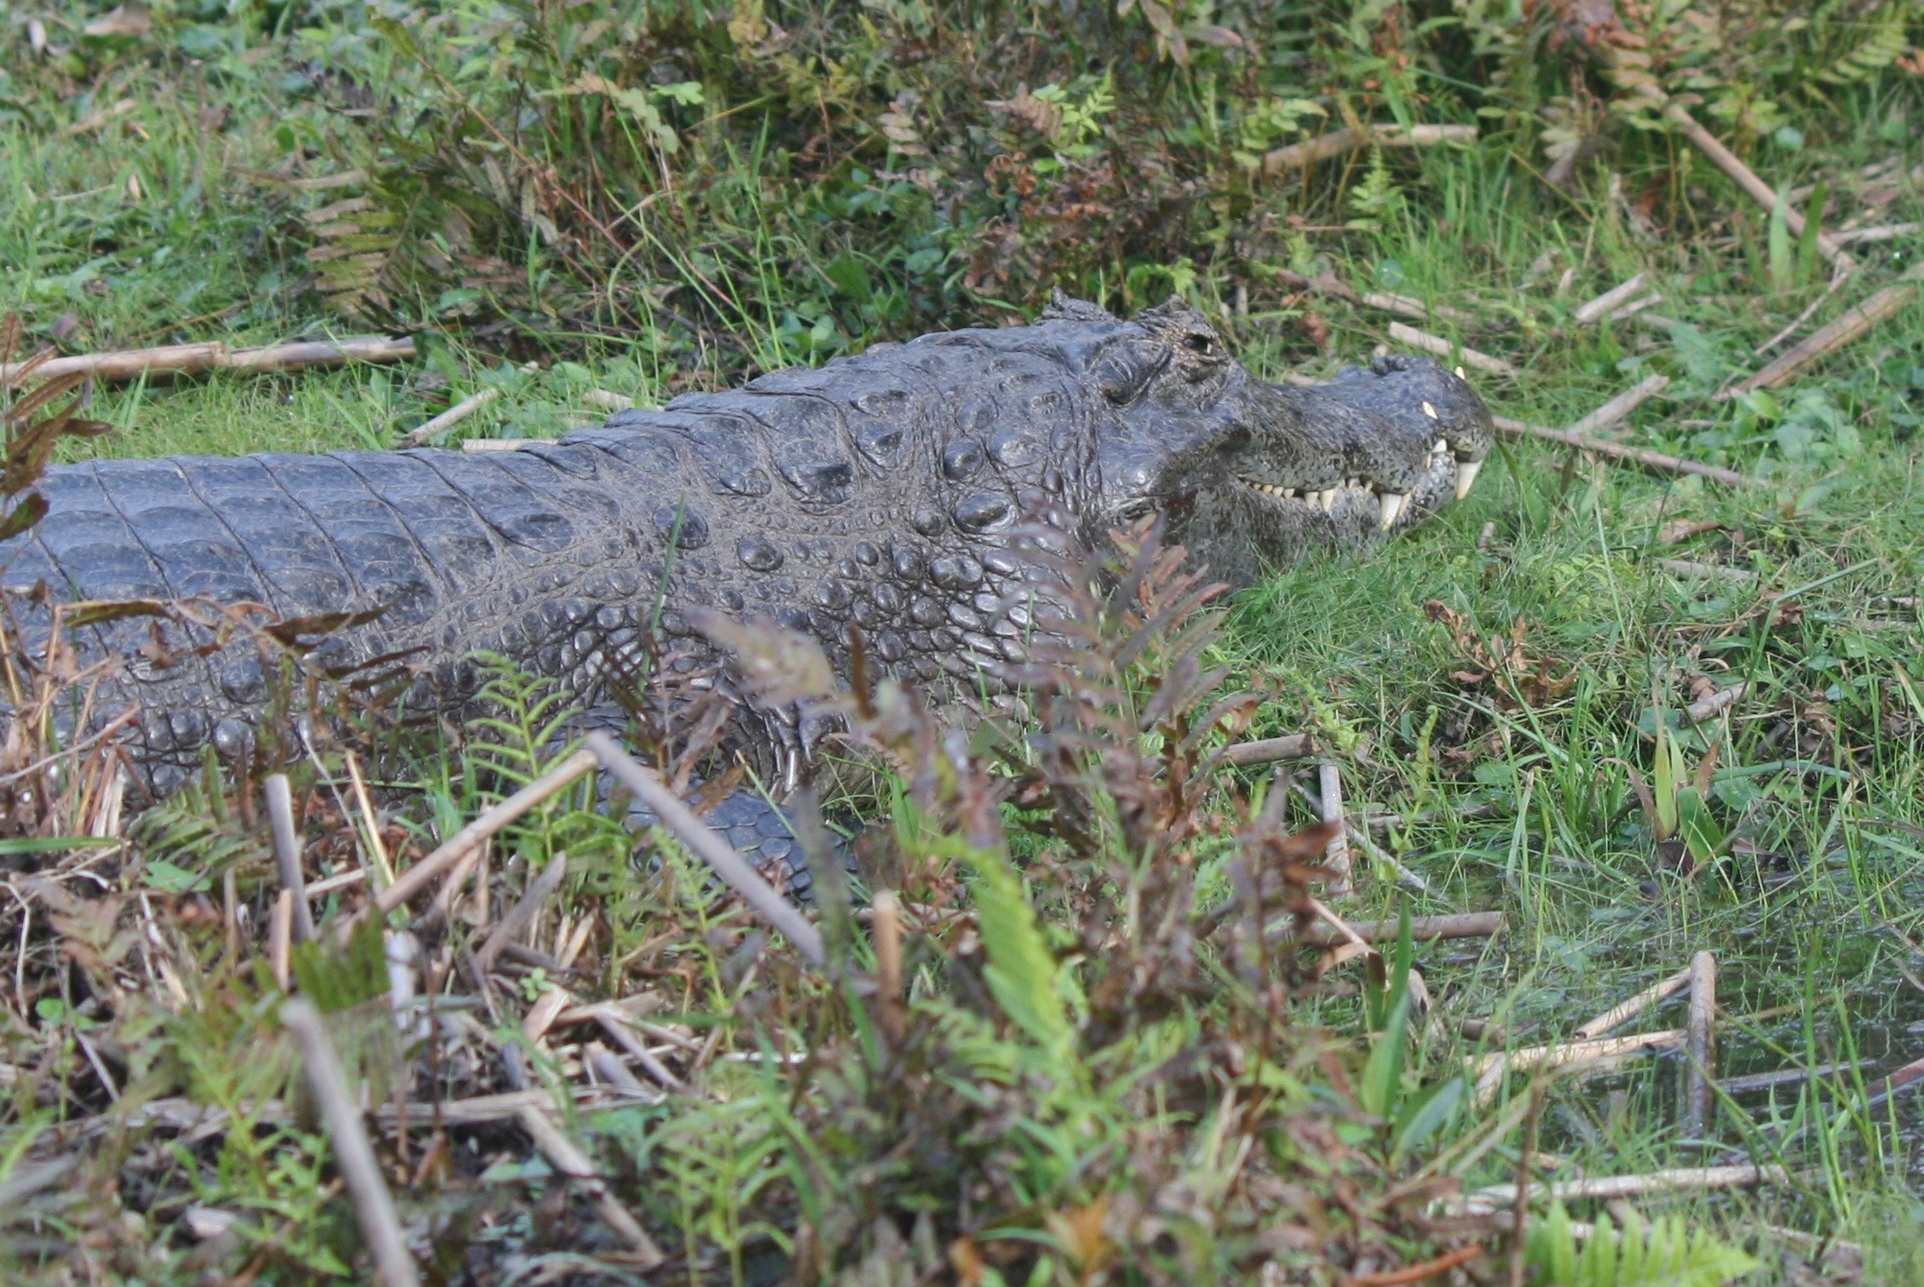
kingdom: Animalia
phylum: Chordata
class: Crocodylia
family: Alligatoridae
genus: Caiman
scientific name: Caiman yacare
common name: Yacare caiman
